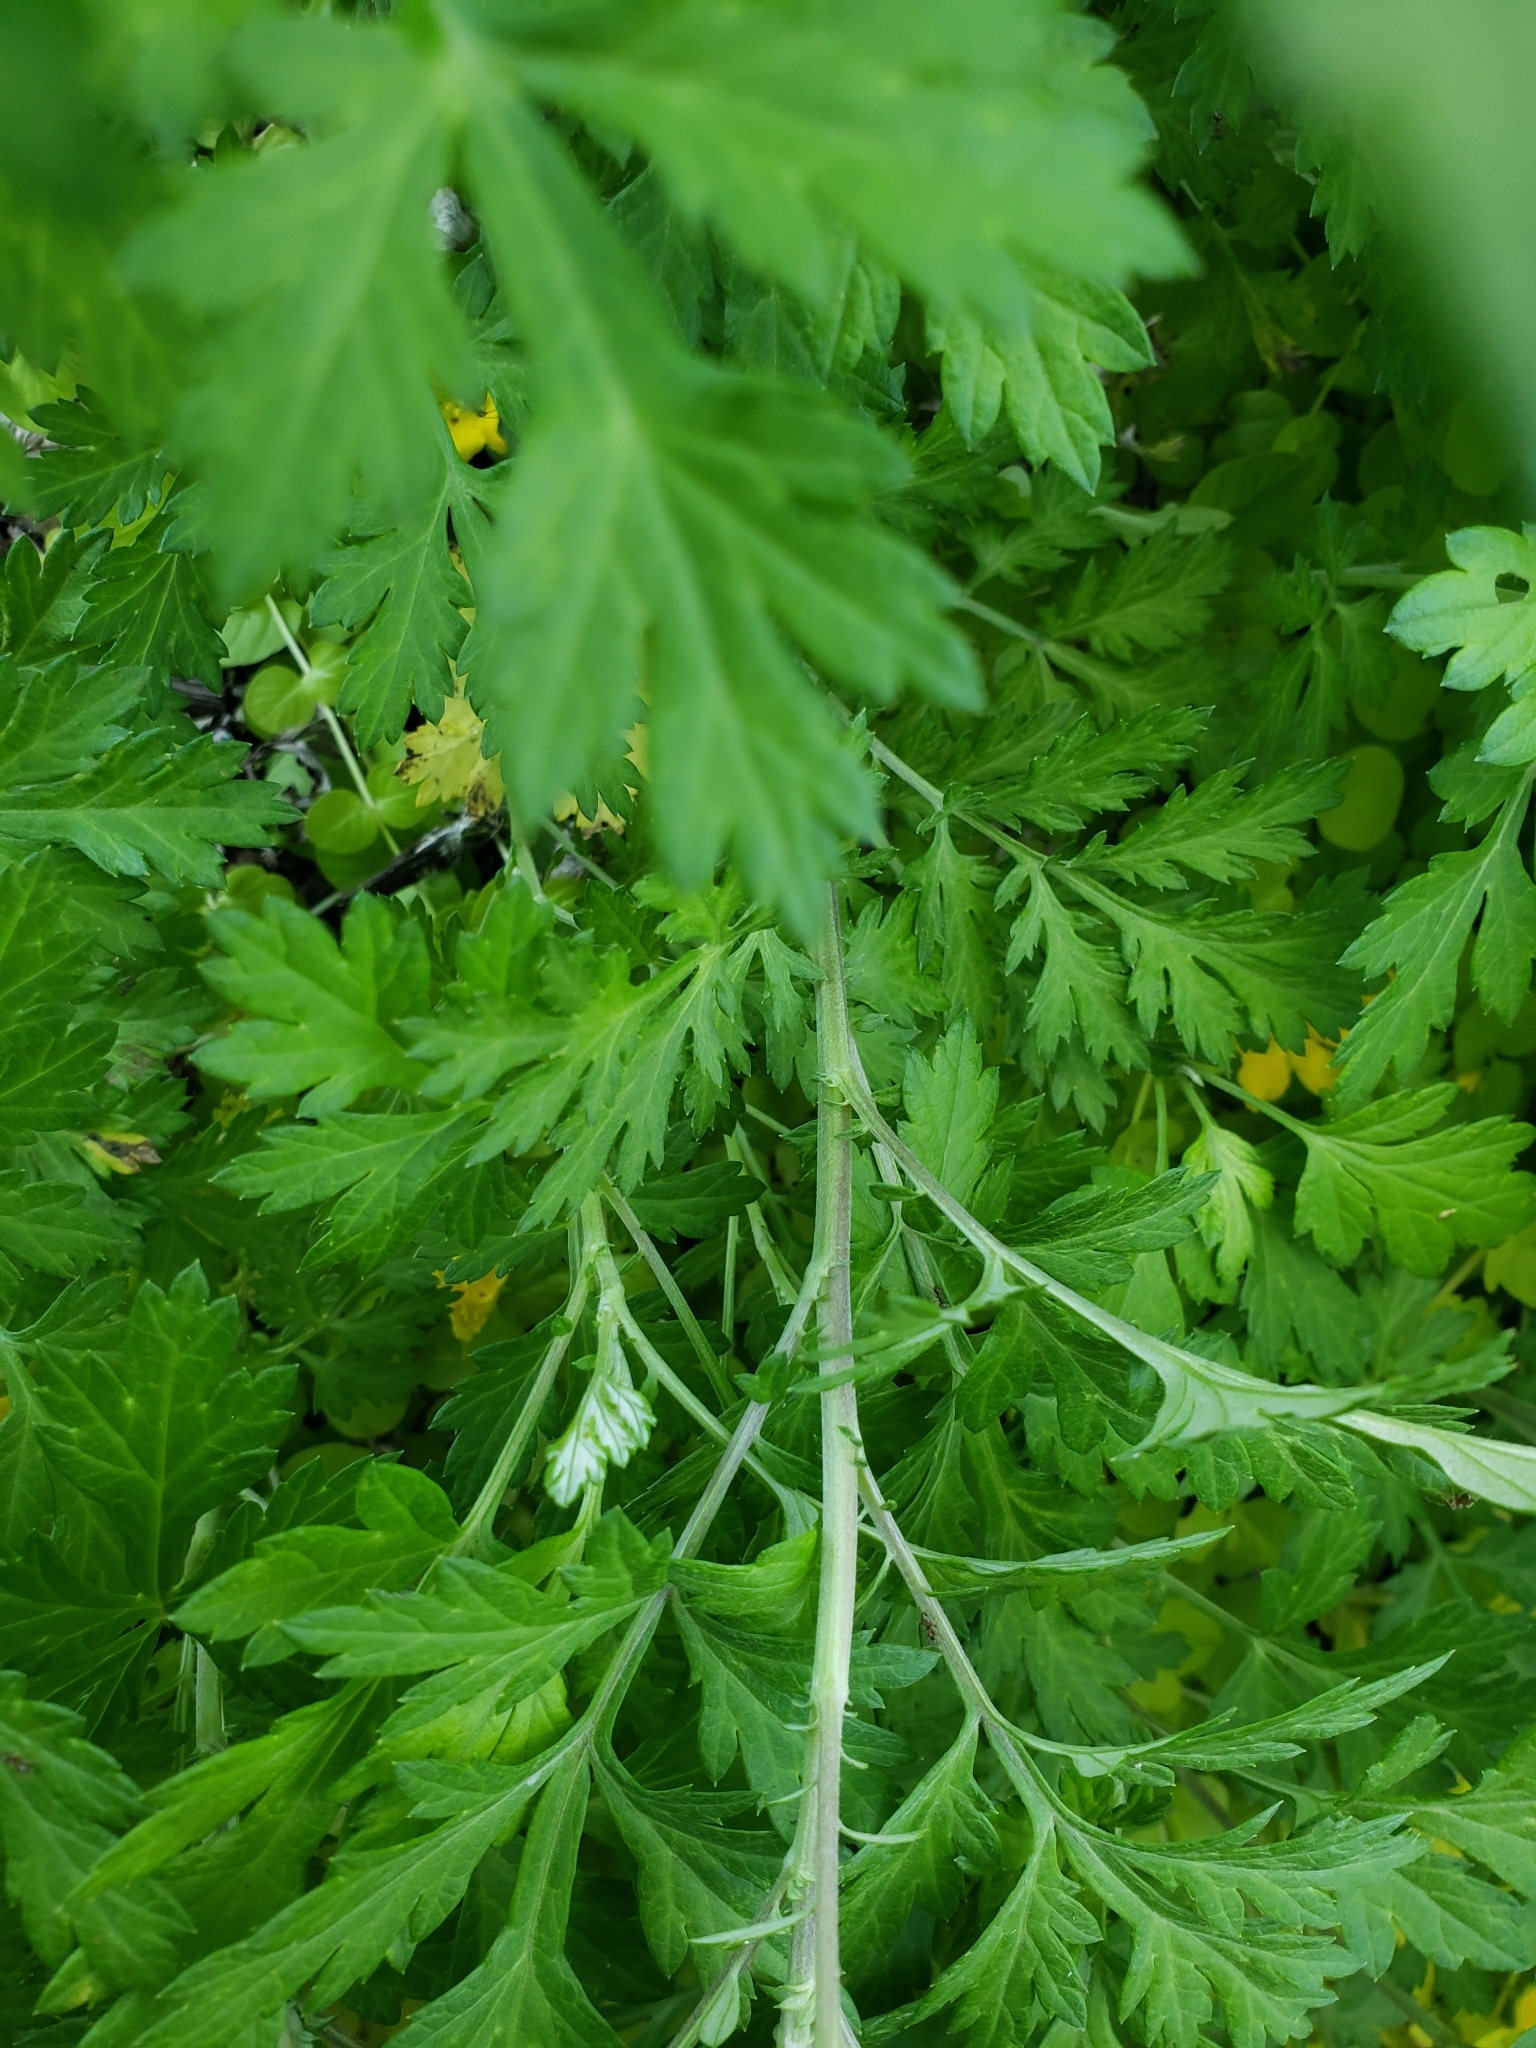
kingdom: Plantae
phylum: Tracheophyta
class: Magnoliopsida
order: Asterales
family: Asteraceae
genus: Artemisia
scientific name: Artemisia vulgaris
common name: Mugwort
